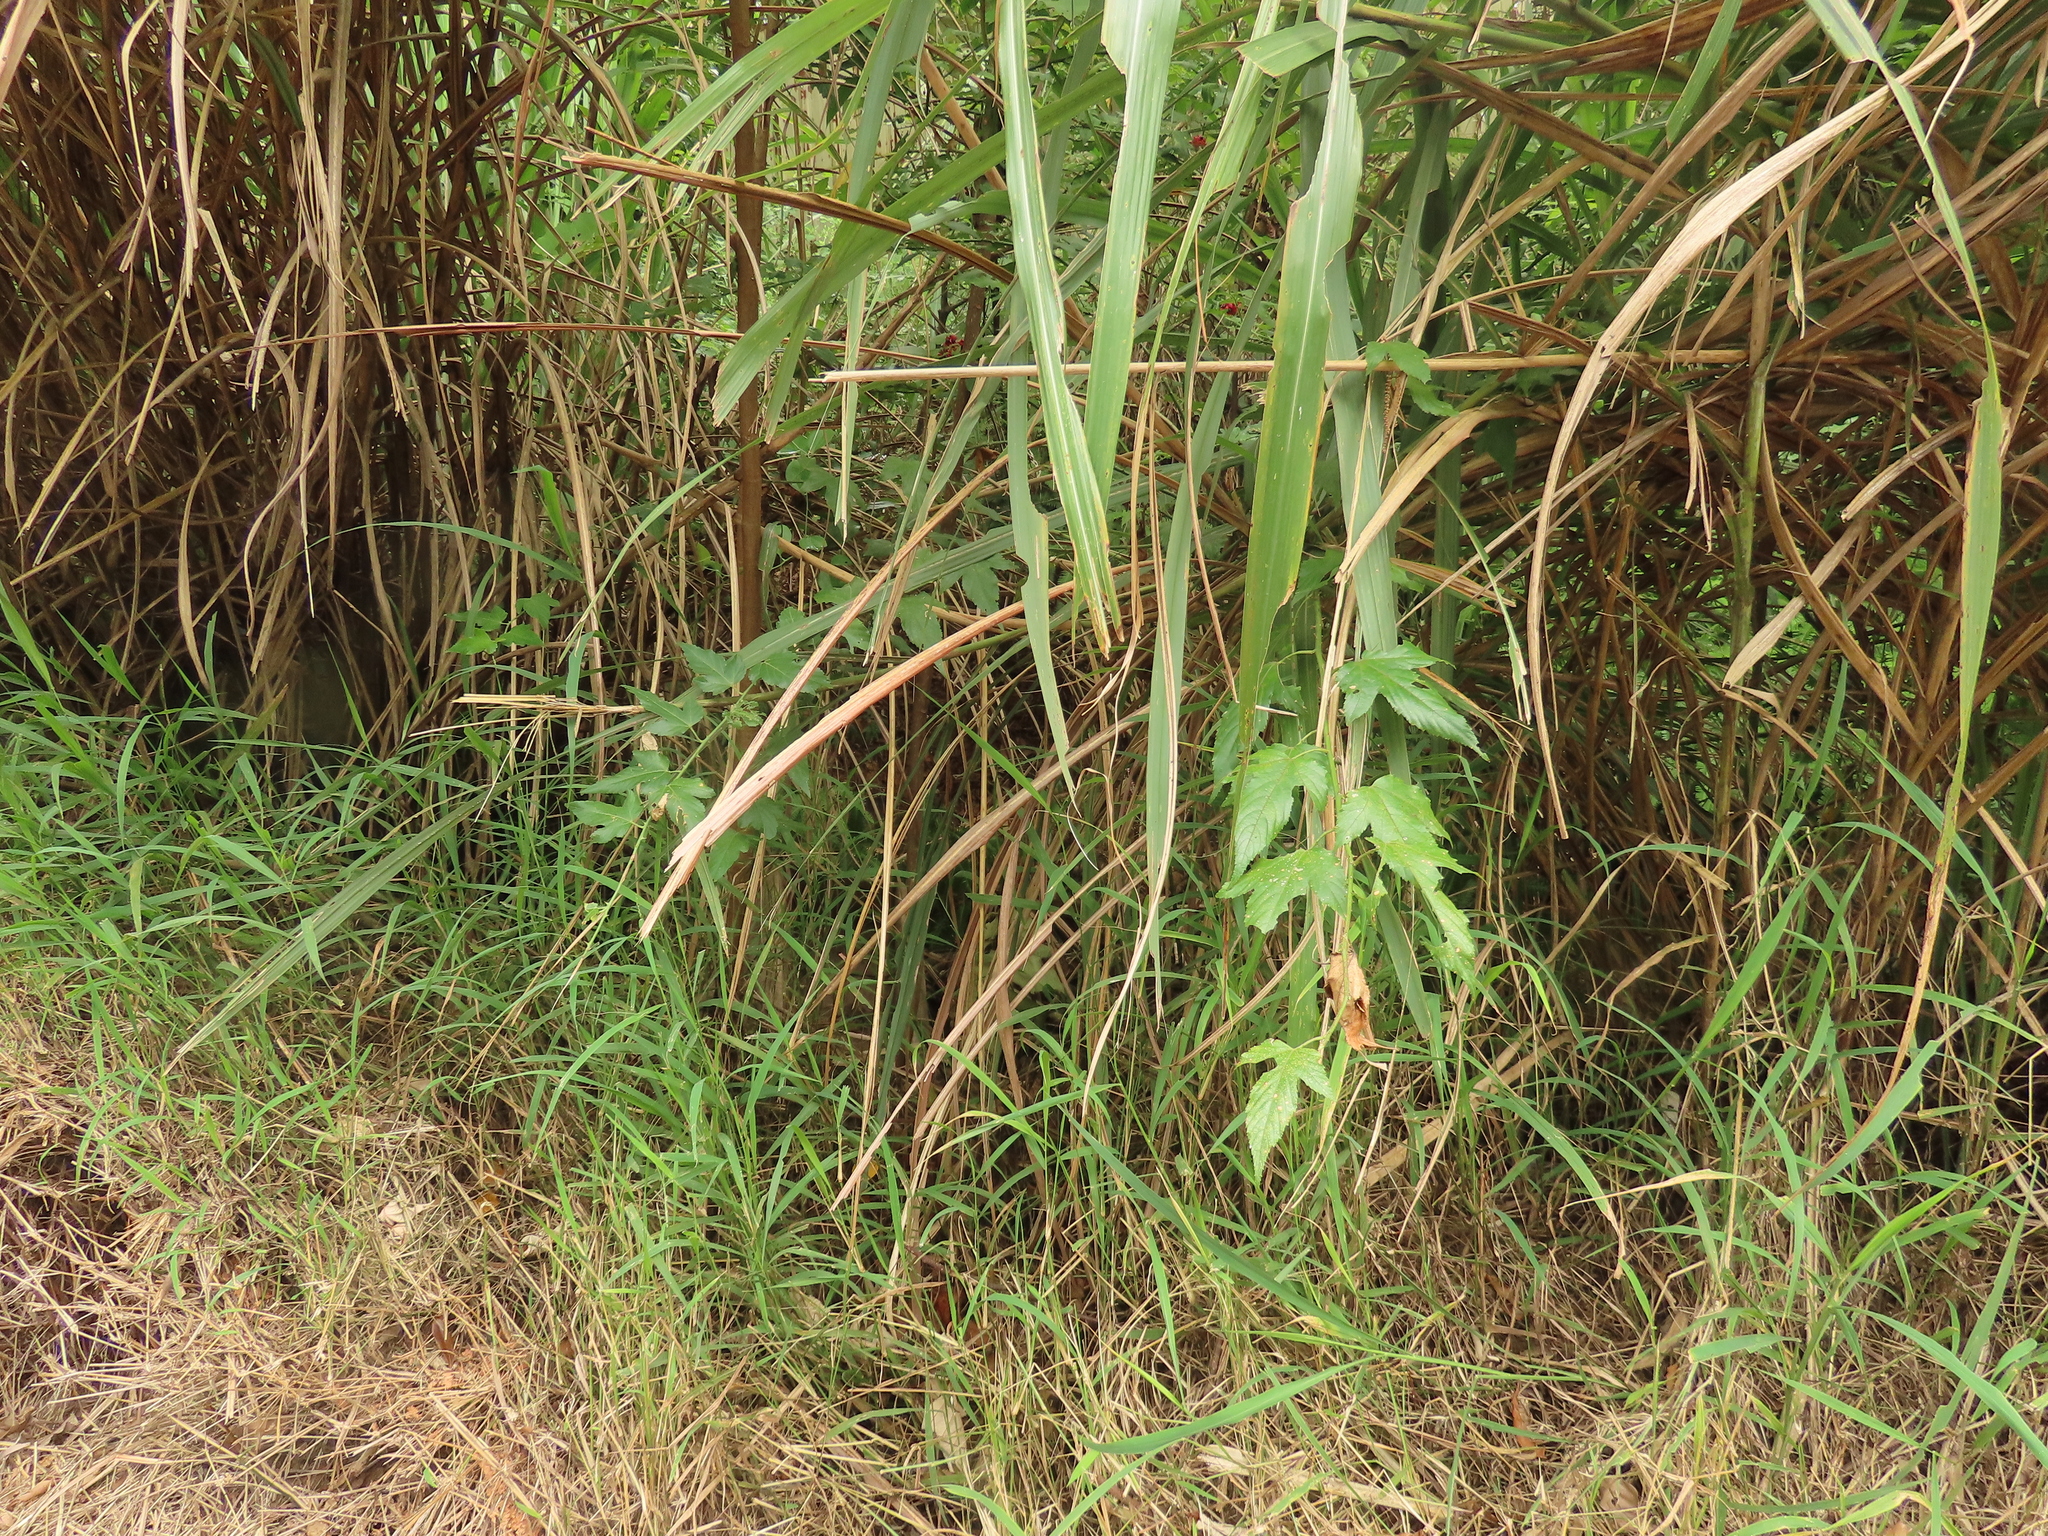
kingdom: Plantae
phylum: Tracheophyta
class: Magnoliopsida
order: Rosales
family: Rosaceae
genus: Rubus
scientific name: Rubus corchorifolius
